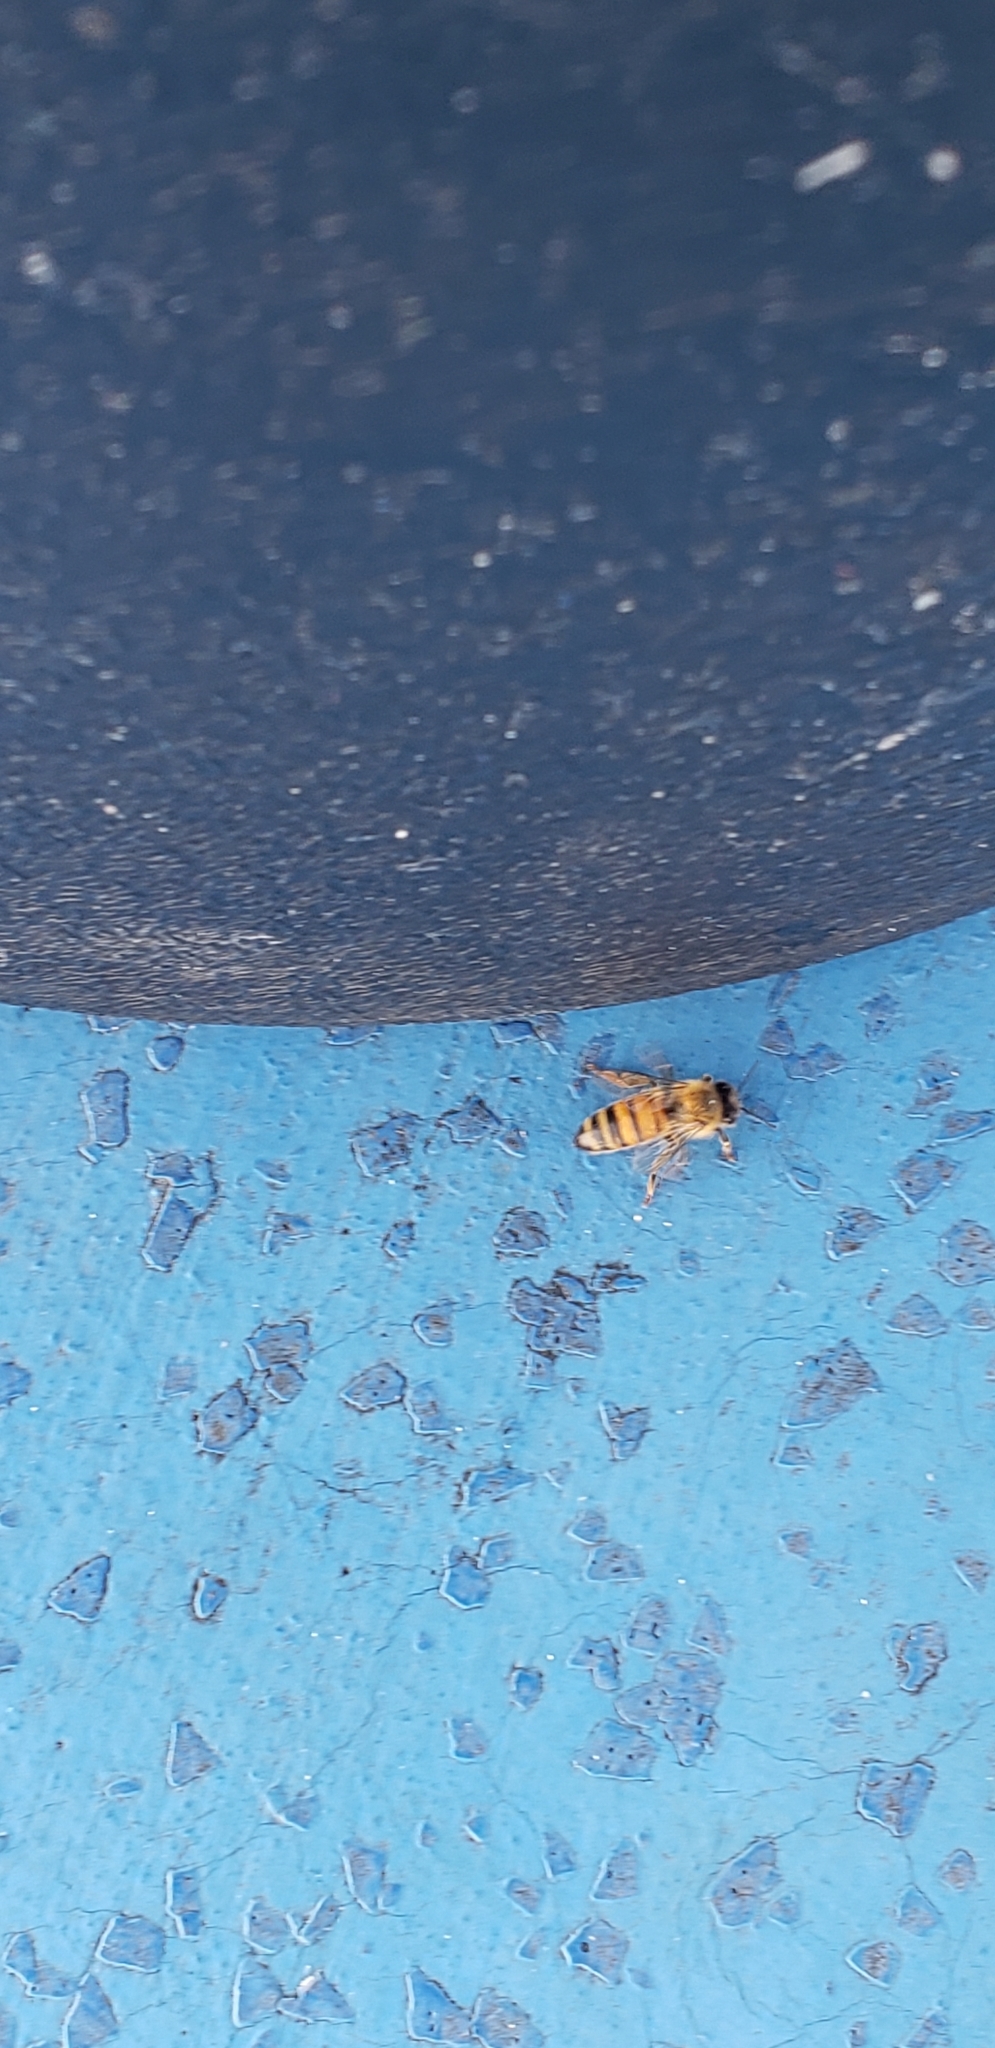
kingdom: Animalia
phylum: Arthropoda
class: Insecta
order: Hymenoptera
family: Apidae
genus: Apis
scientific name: Apis mellifera
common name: Honey bee
